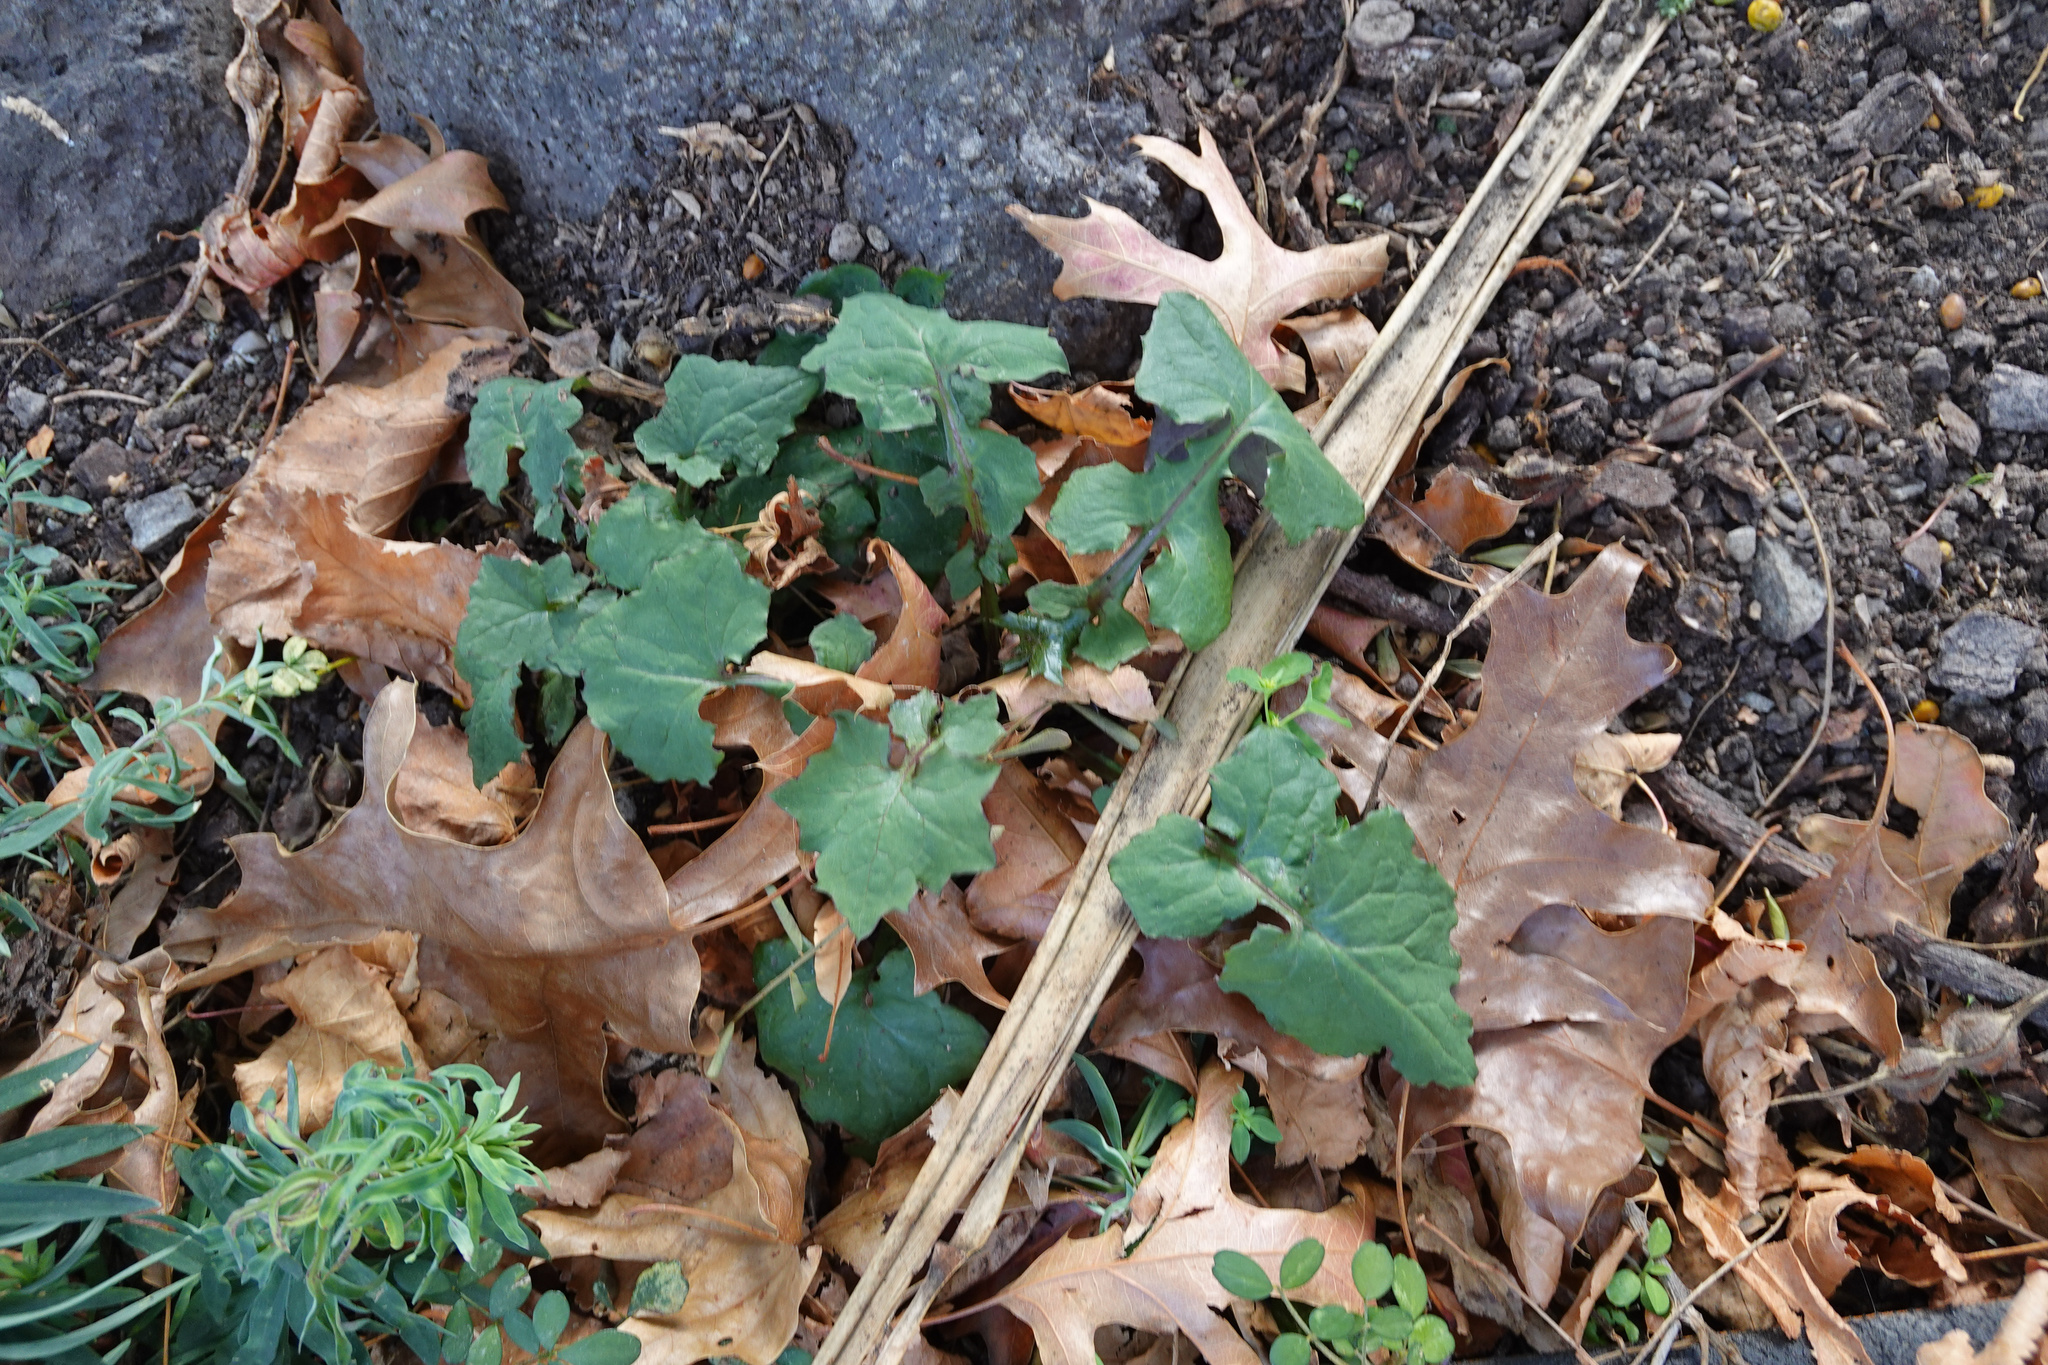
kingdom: Plantae
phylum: Tracheophyta
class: Magnoliopsida
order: Asterales
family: Asteraceae
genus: Mycelis
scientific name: Mycelis muralis
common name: Wall lettuce
